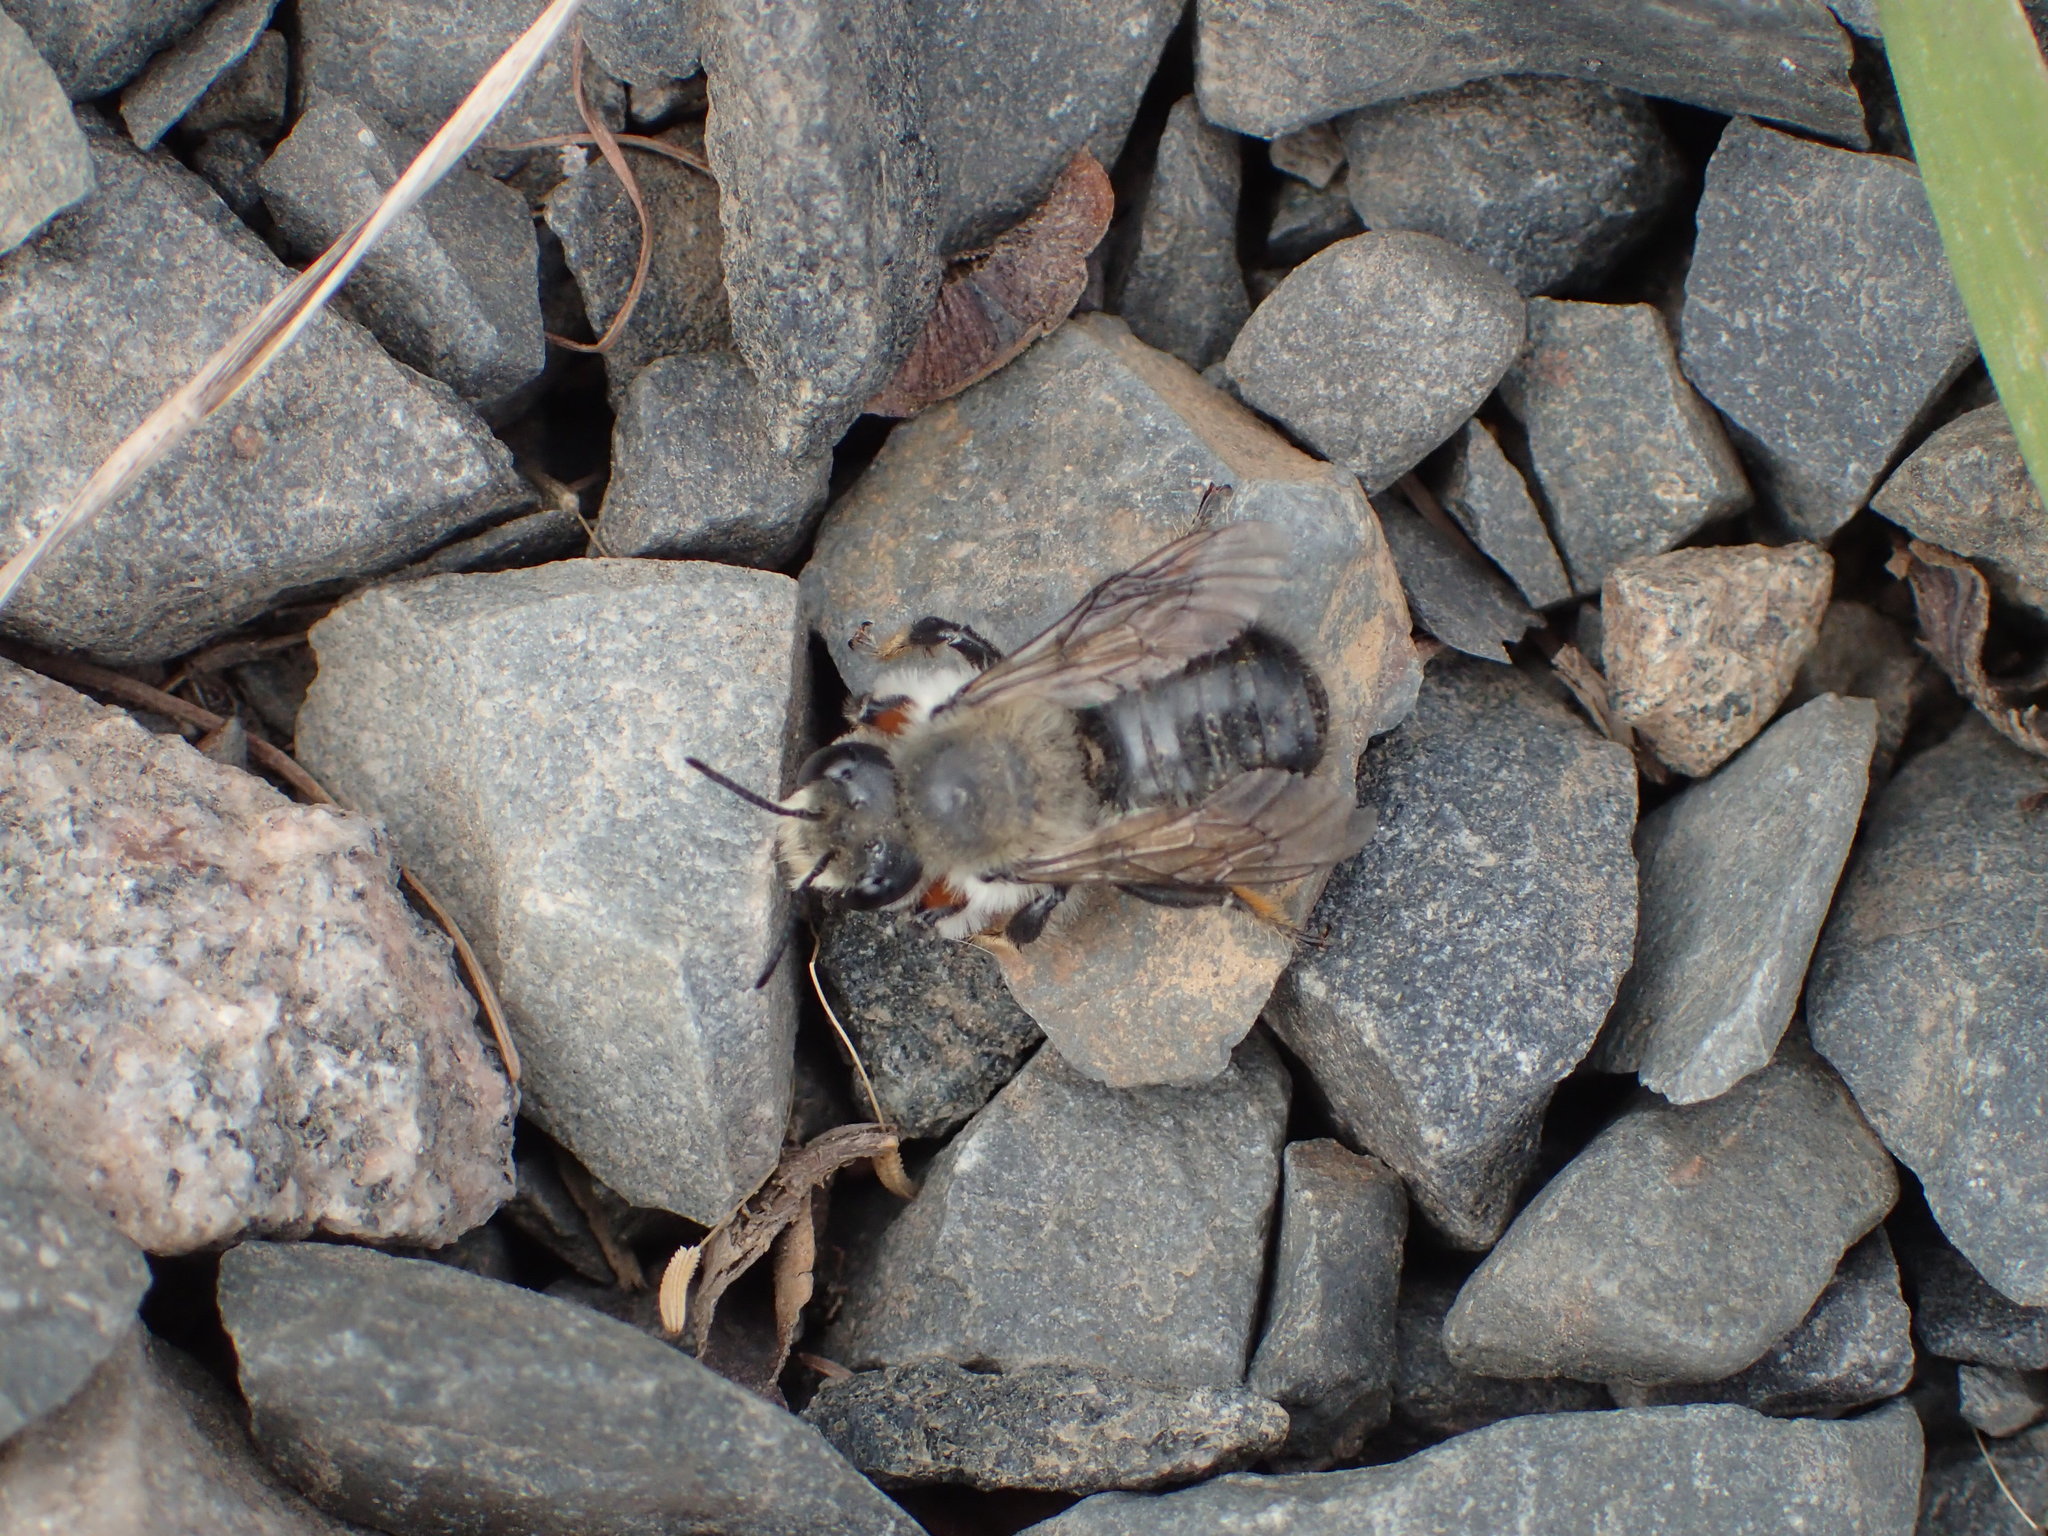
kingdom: Animalia
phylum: Arthropoda
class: Insecta
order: Hymenoptera
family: Megachilidae
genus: Megachile
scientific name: Megachile melanophaea
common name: Black-and-gray leafcutter bee
